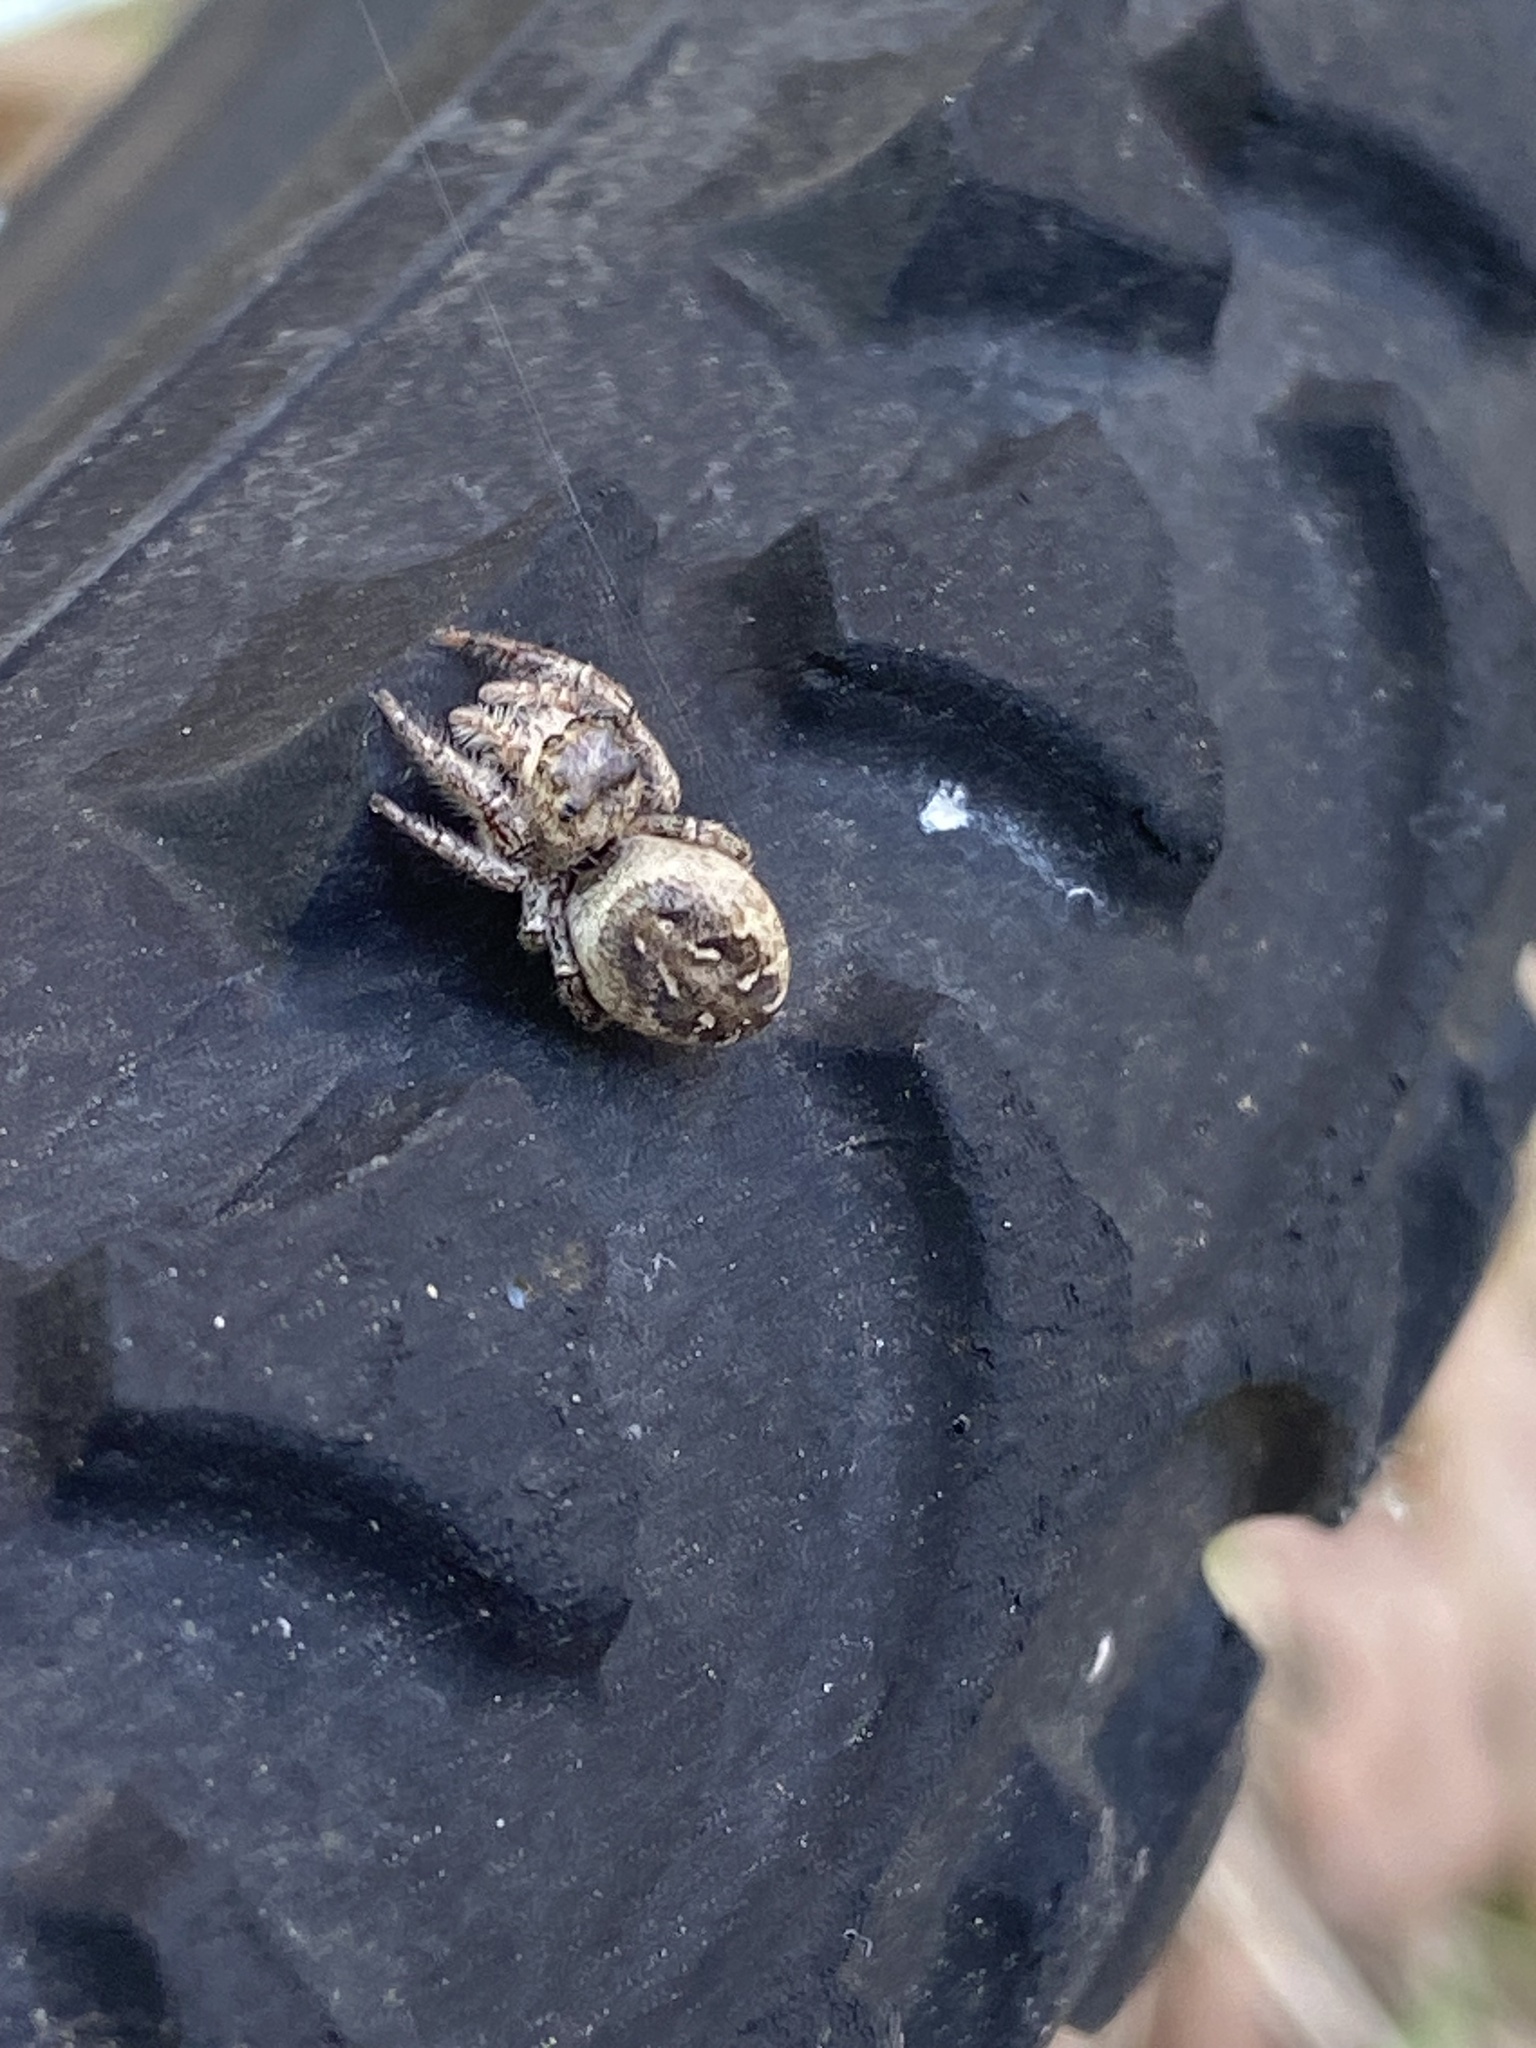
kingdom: Animalia
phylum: Arthropoda
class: Arachnida
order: Araneae
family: Salticidae
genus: Eris
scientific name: Eris militaris
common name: Bronze jumper
